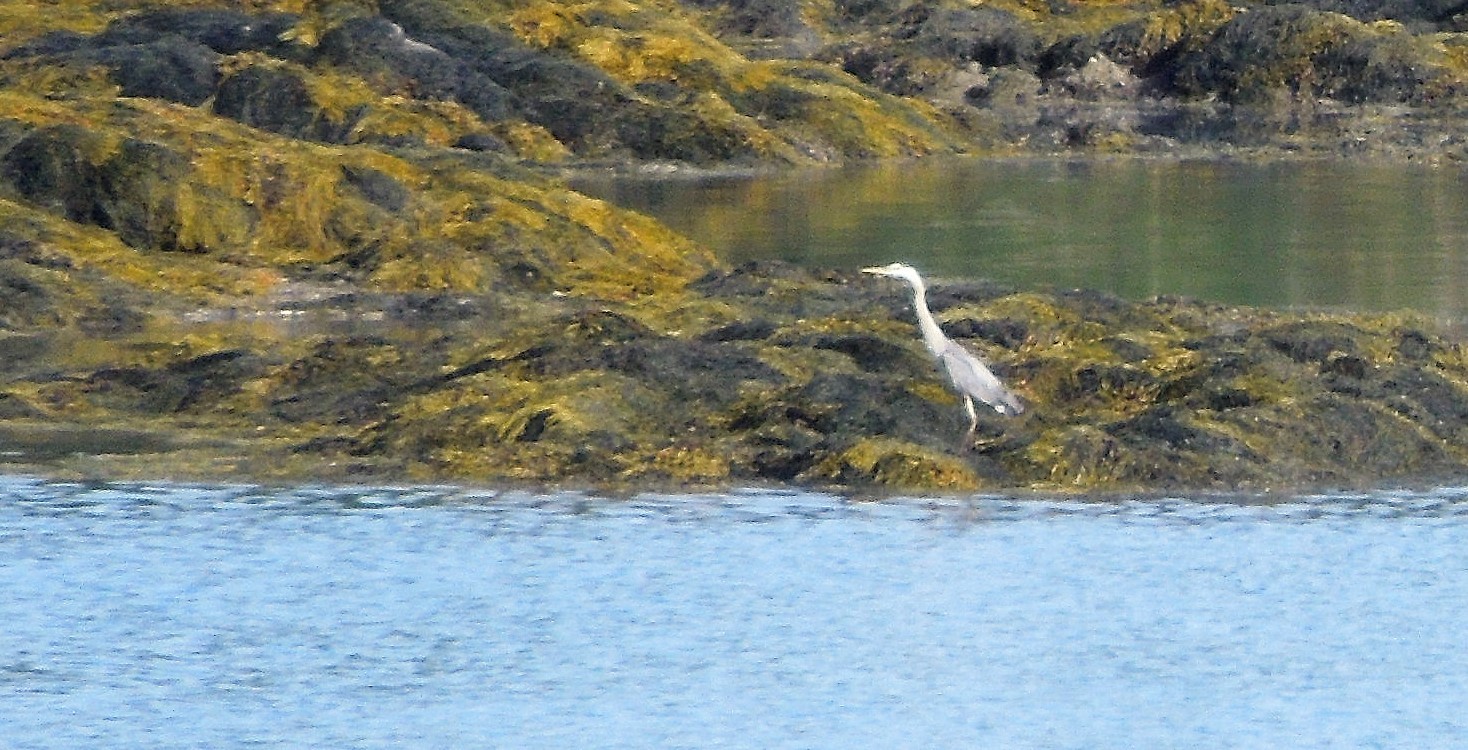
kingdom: Animalia
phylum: Chordata
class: Aves
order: Pelecaniformes
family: Ardeidae
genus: Ardea
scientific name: Ardea herodias
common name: Great blue heron
